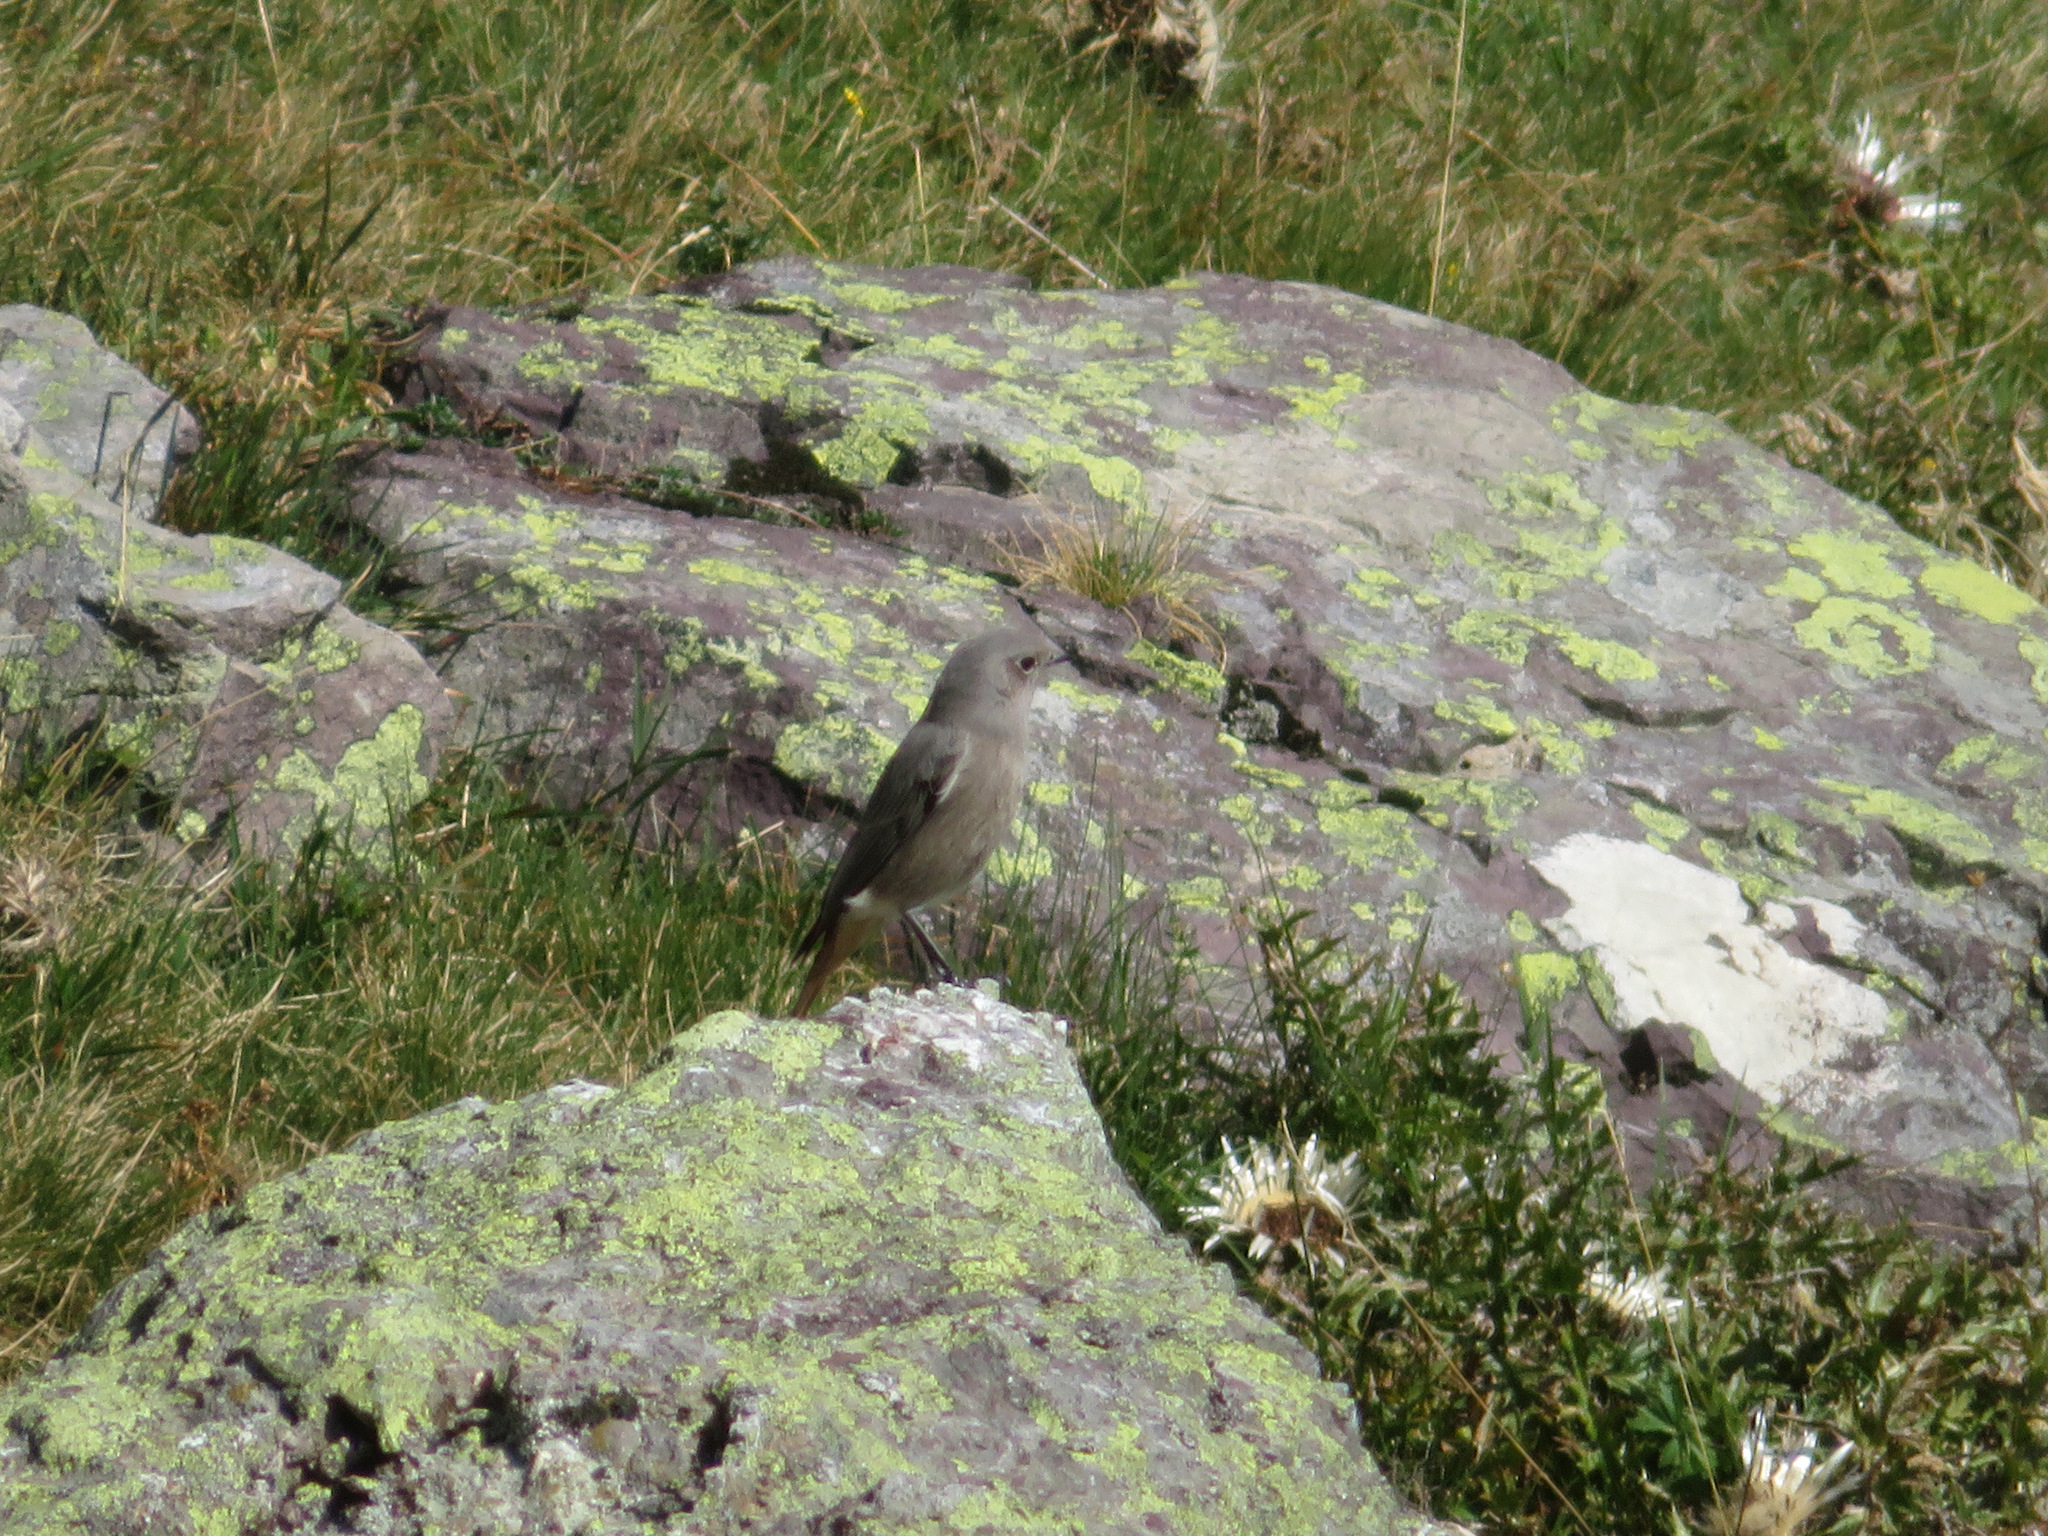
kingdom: Animalia
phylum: Chordata
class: Aves
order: Passeriformes
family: Muscicapidae
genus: Phoenicurus
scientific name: Phoenicurus ochruros
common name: Black redstart
